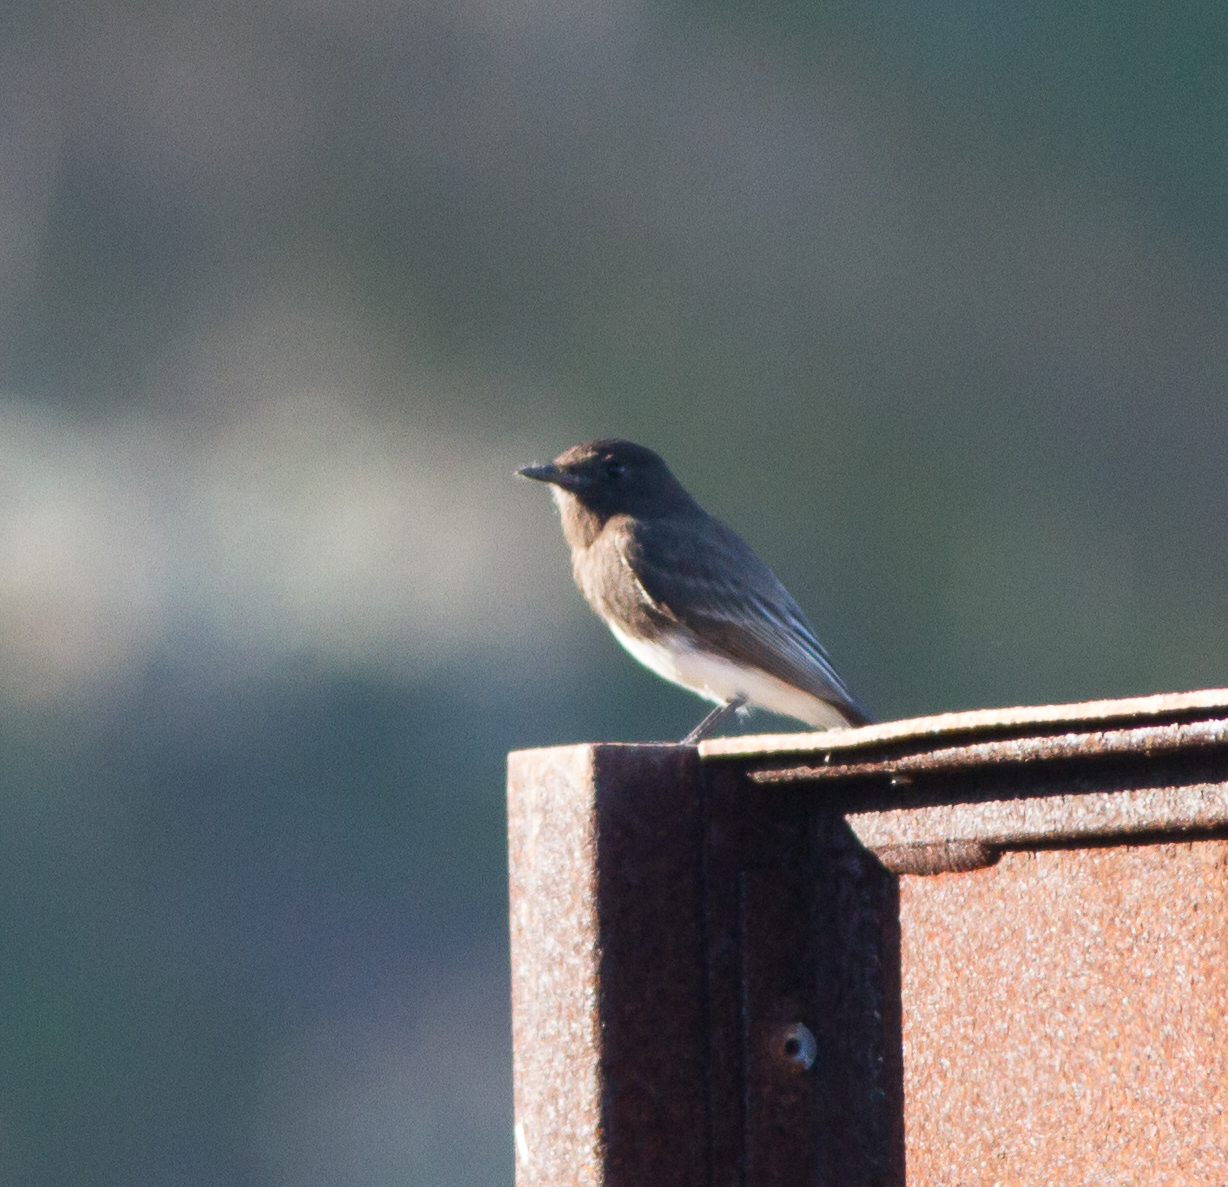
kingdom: Animalia
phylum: Chordata
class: Aves
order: Passeriformes
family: Tyrannidae
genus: Sayornis
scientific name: Sayornis nigricans
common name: Black phoebe
